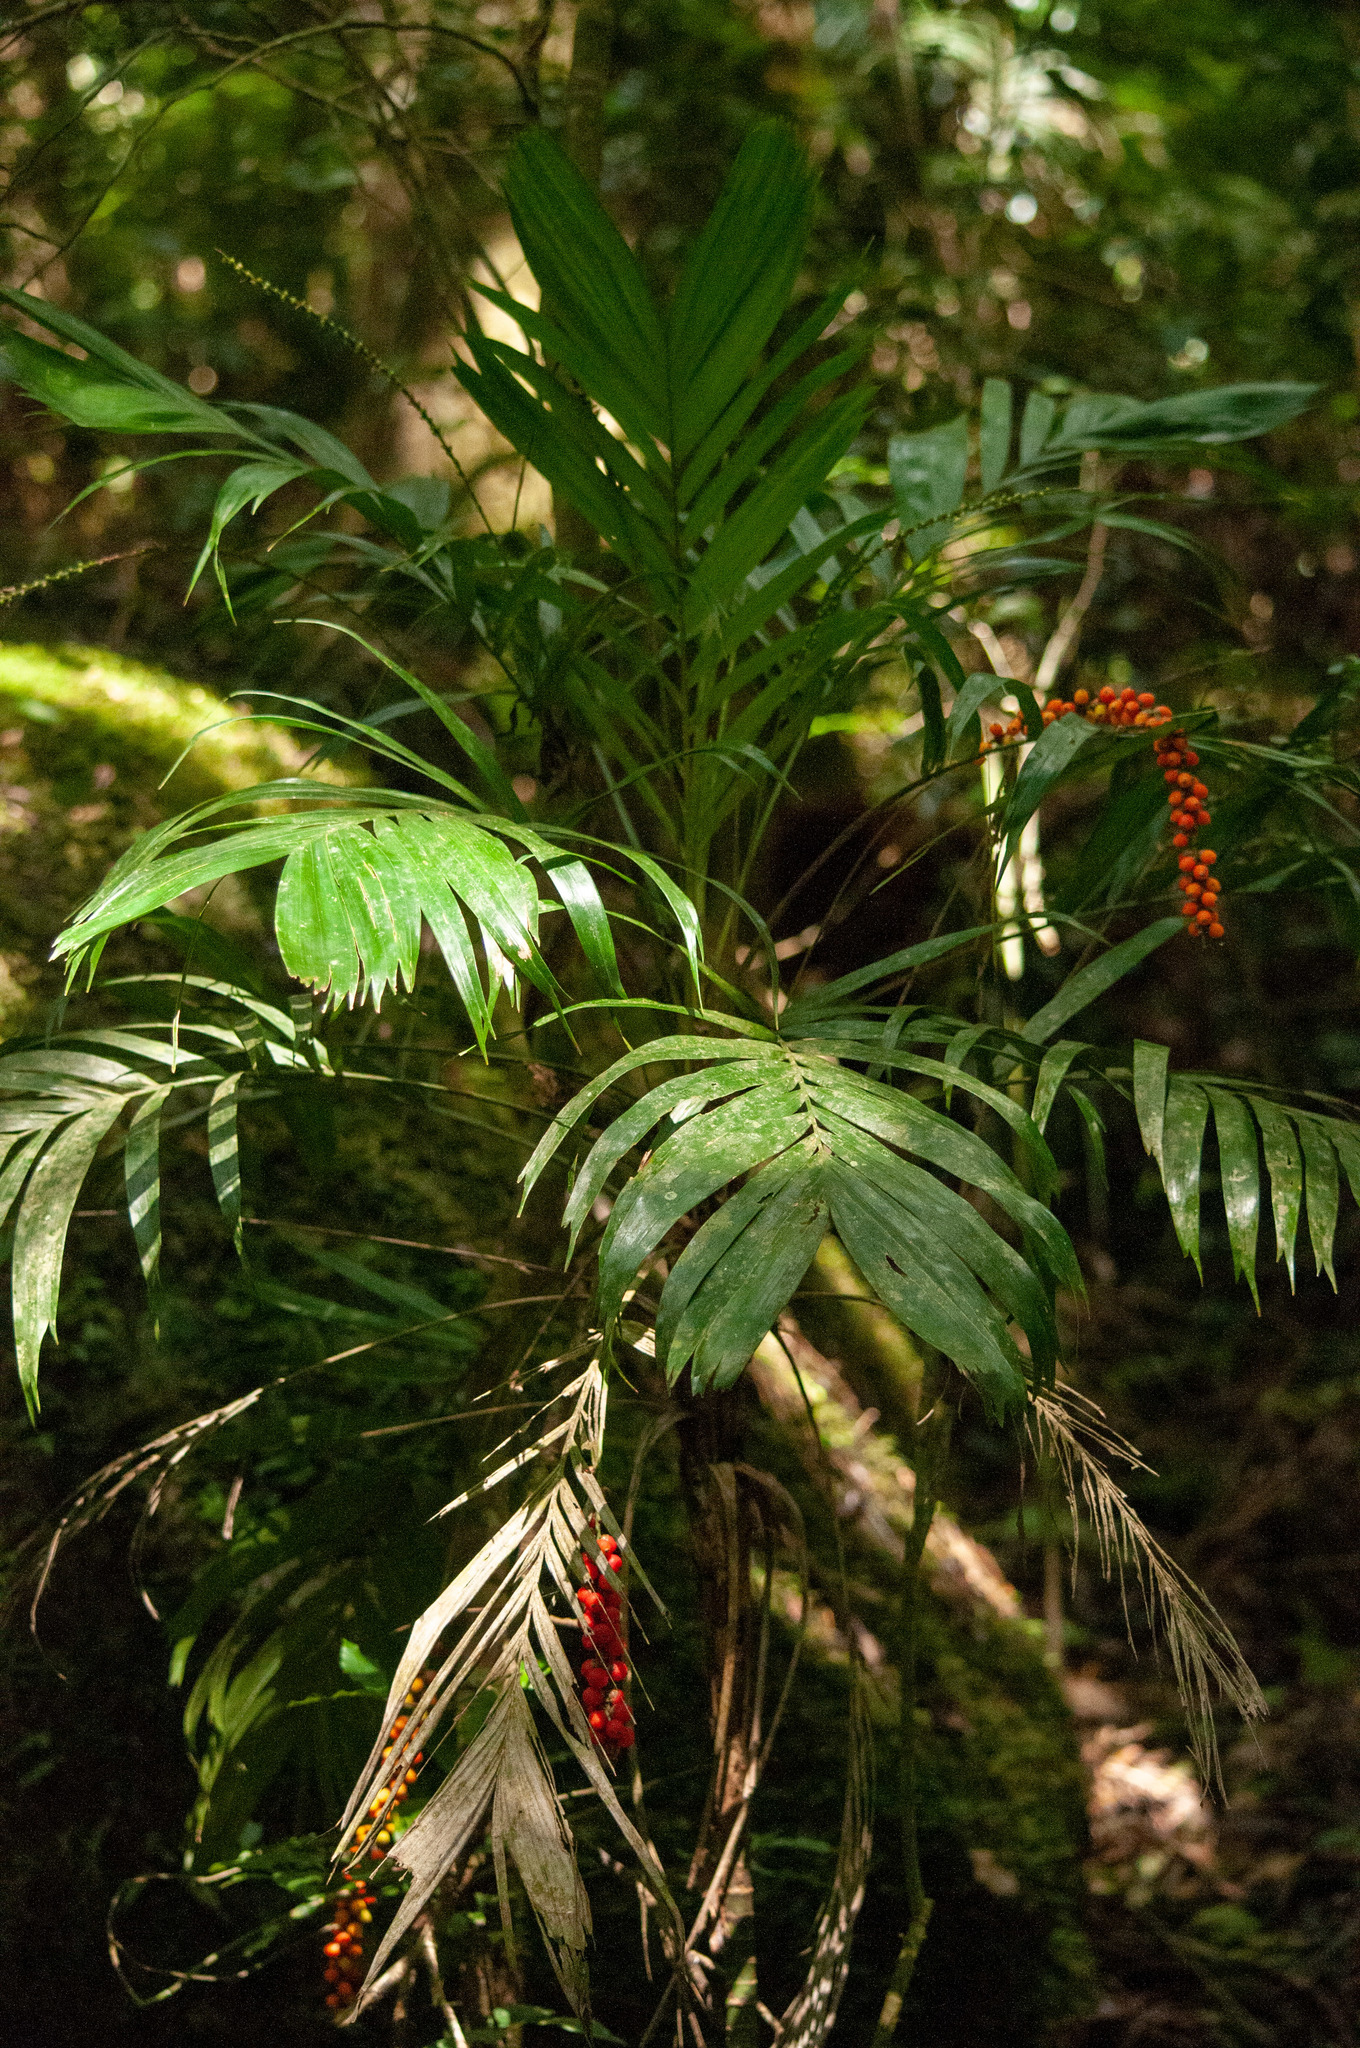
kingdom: Plantae
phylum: Tracheophyta
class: Liliopsida
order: Arecales
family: Arecaceae
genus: Linospadix
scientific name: Linospadix monostachyus
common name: Walking-stick palm
